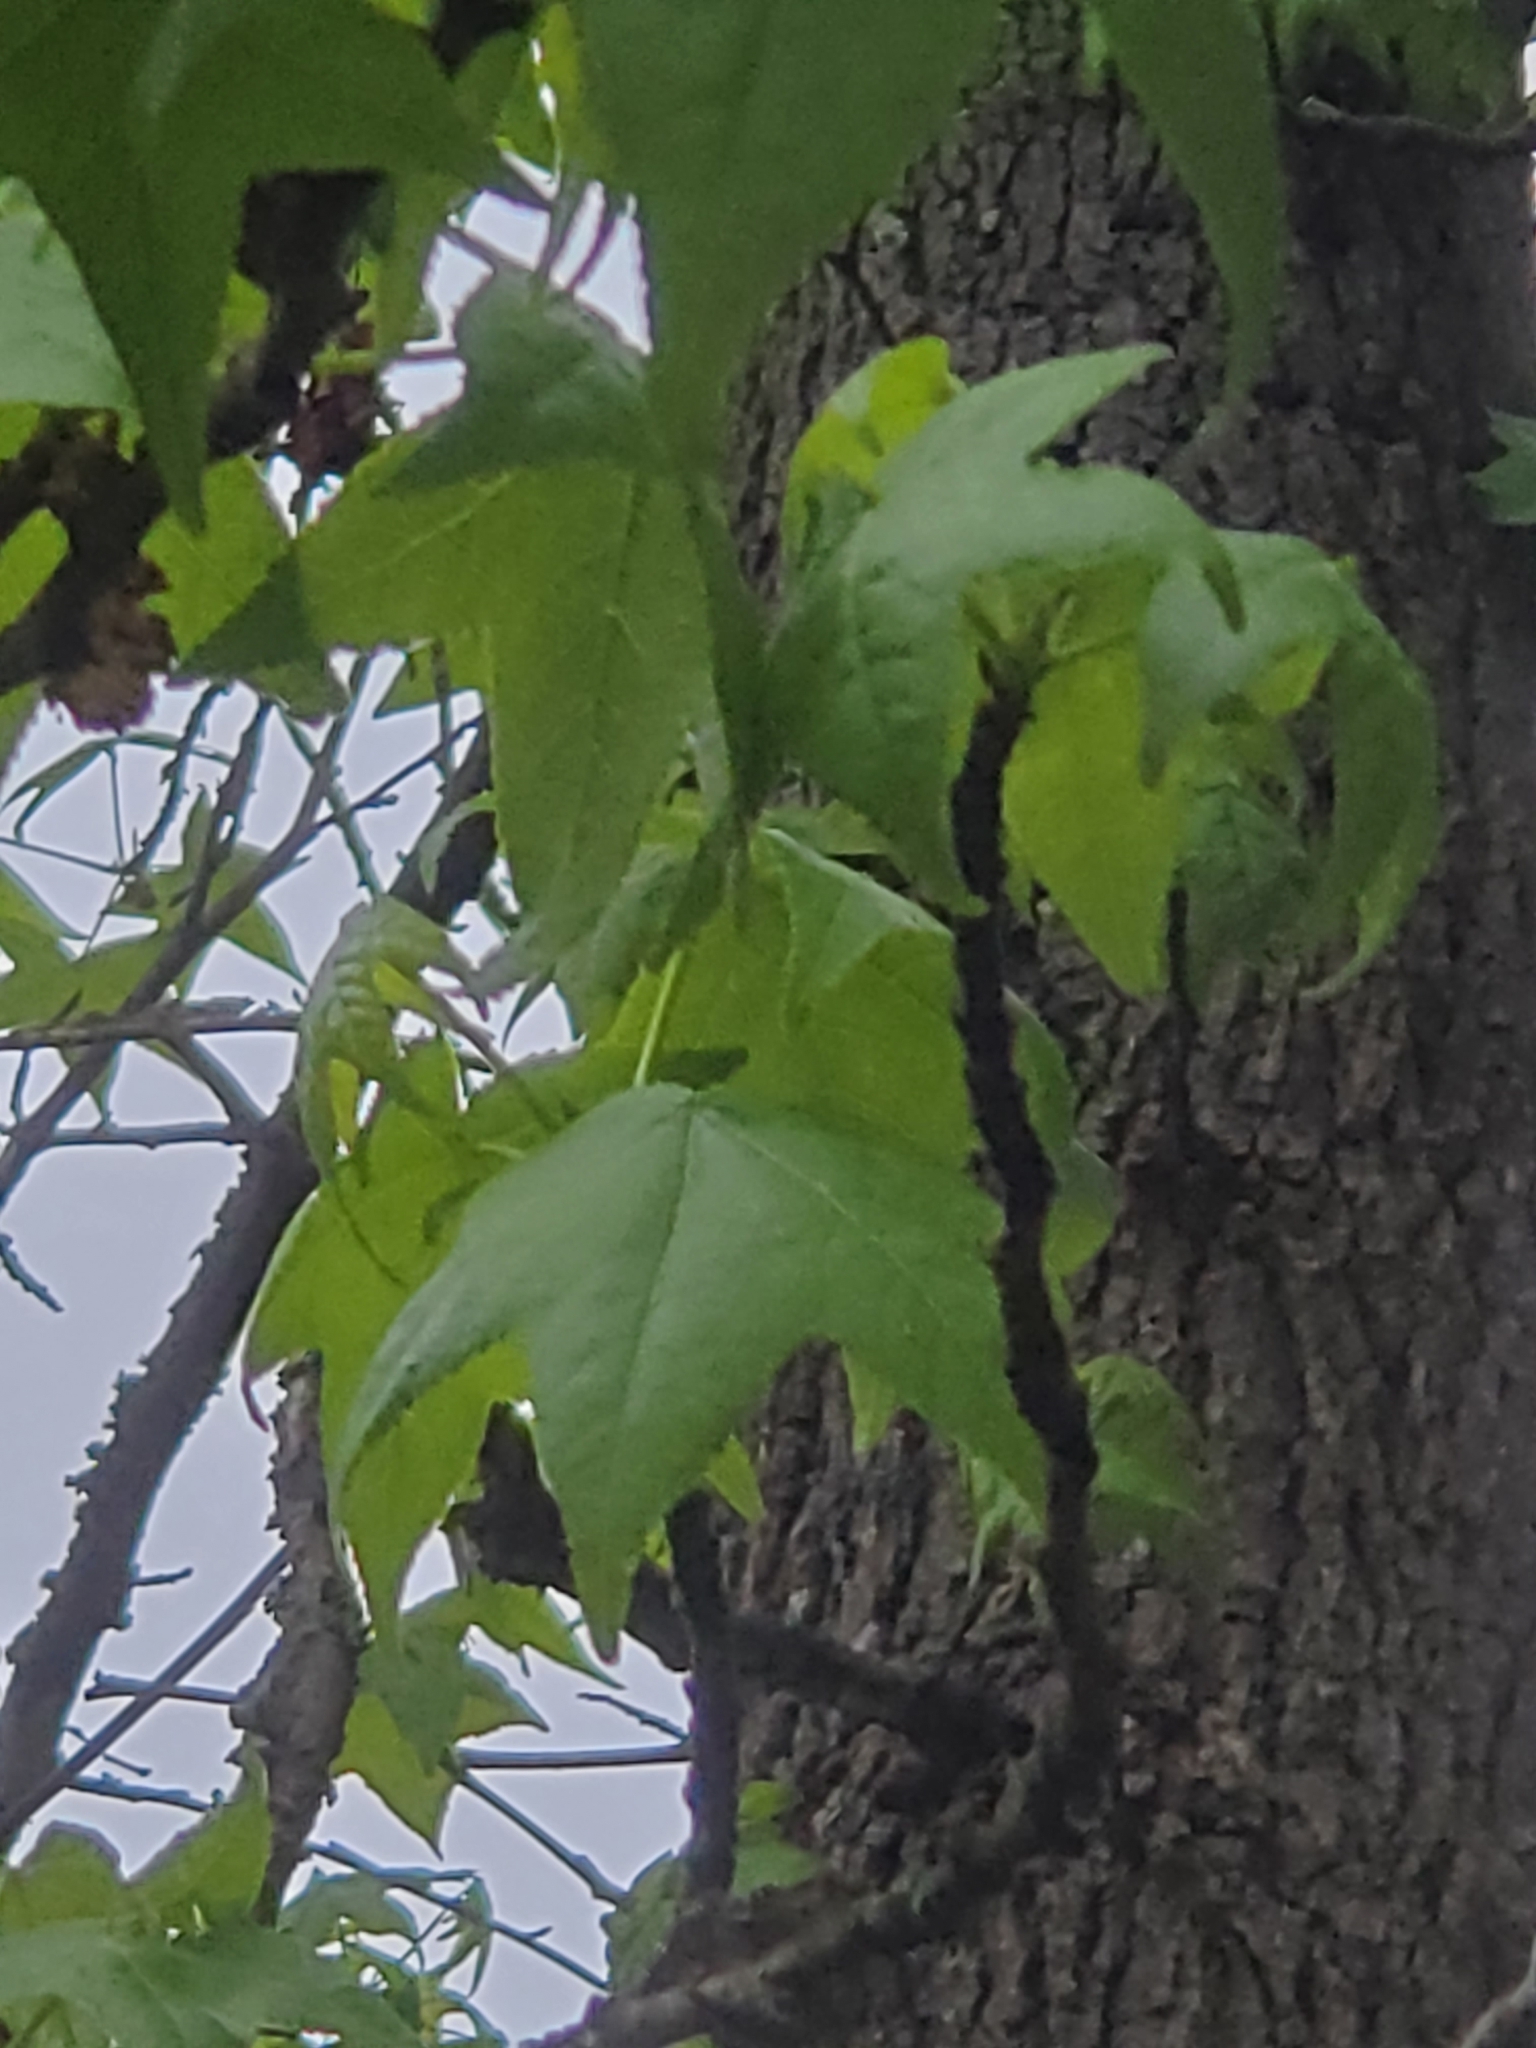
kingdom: Plantae
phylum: Tracheophyta
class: Magnoliopsida
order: Saxifragales
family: Altingiaceae
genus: Liquidambar
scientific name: Liquidambar styraciflua
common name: Sweet gum
